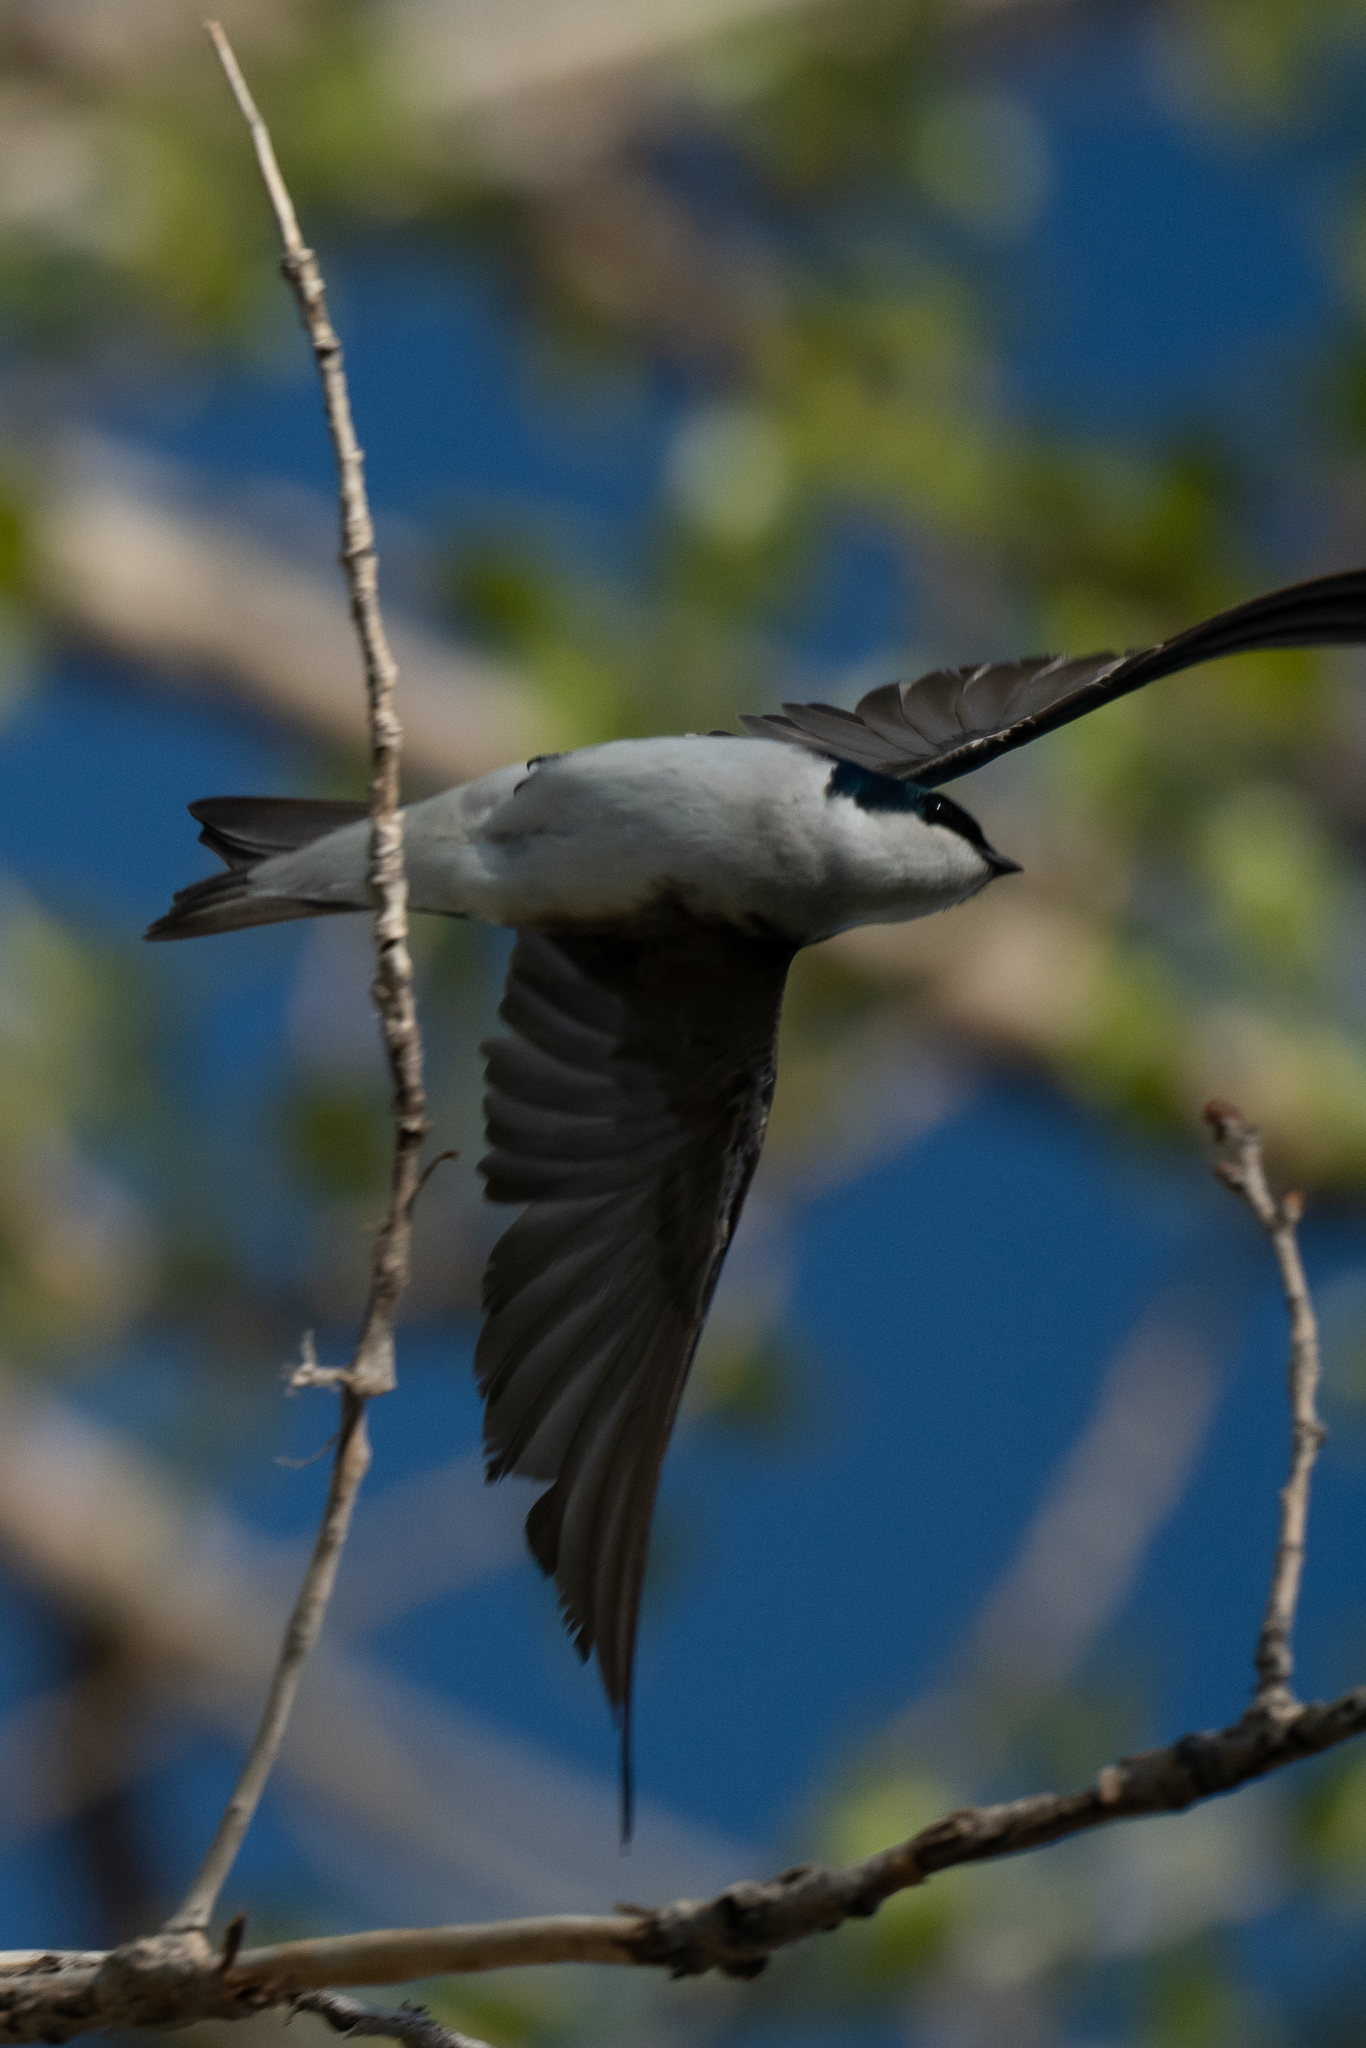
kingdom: Animalia
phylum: Chordata
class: Aves
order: Passeriformes
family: Hirundinidae
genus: Tachycineta
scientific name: Tachycineta bicolor
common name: Tree swallow
